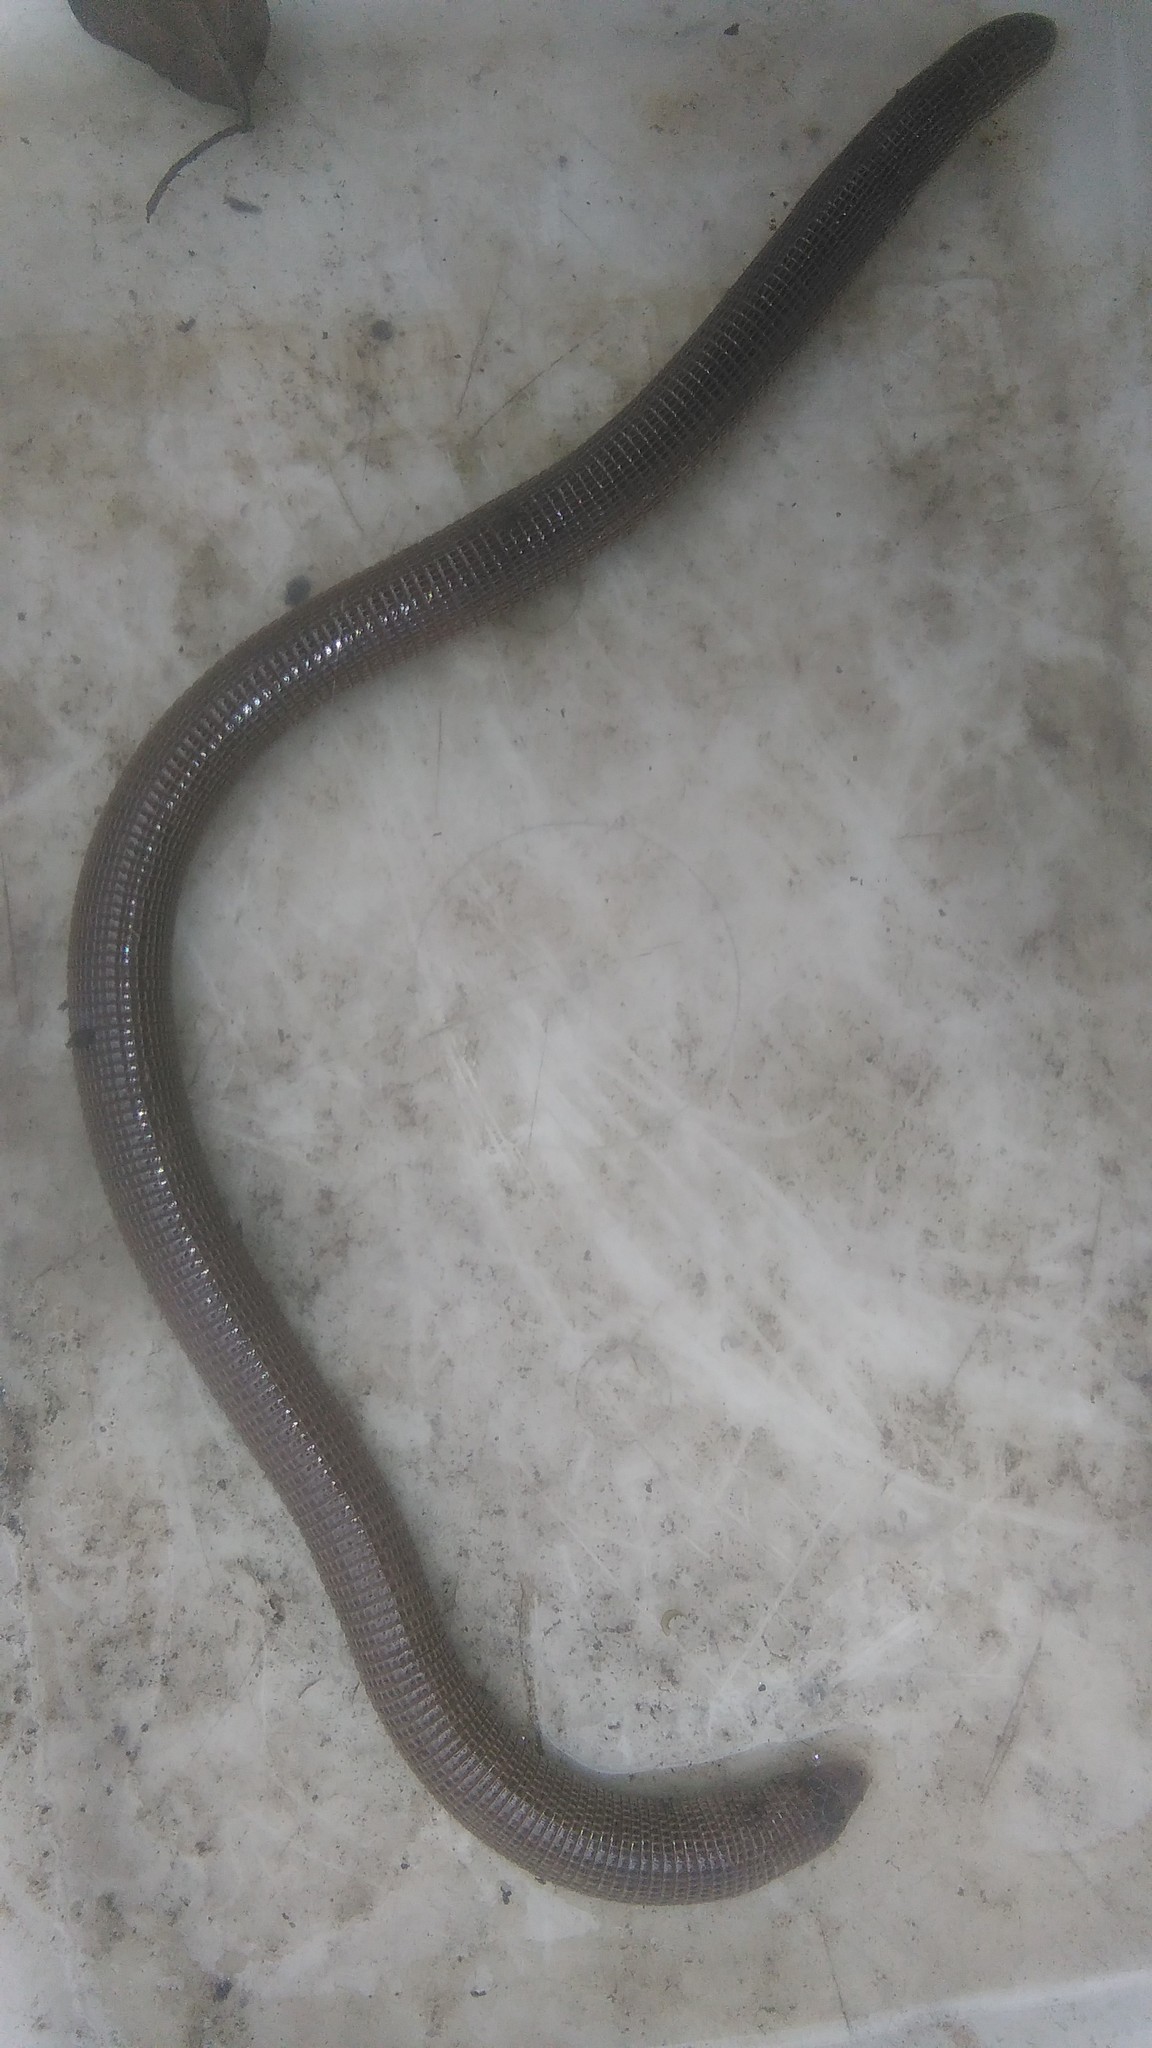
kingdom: Animalia
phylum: Chordata
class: Squamata
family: Amphisbaenidae
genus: Amphisbaena
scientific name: Amphisbaena darwinii
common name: Darwin's ringed worm lizard
